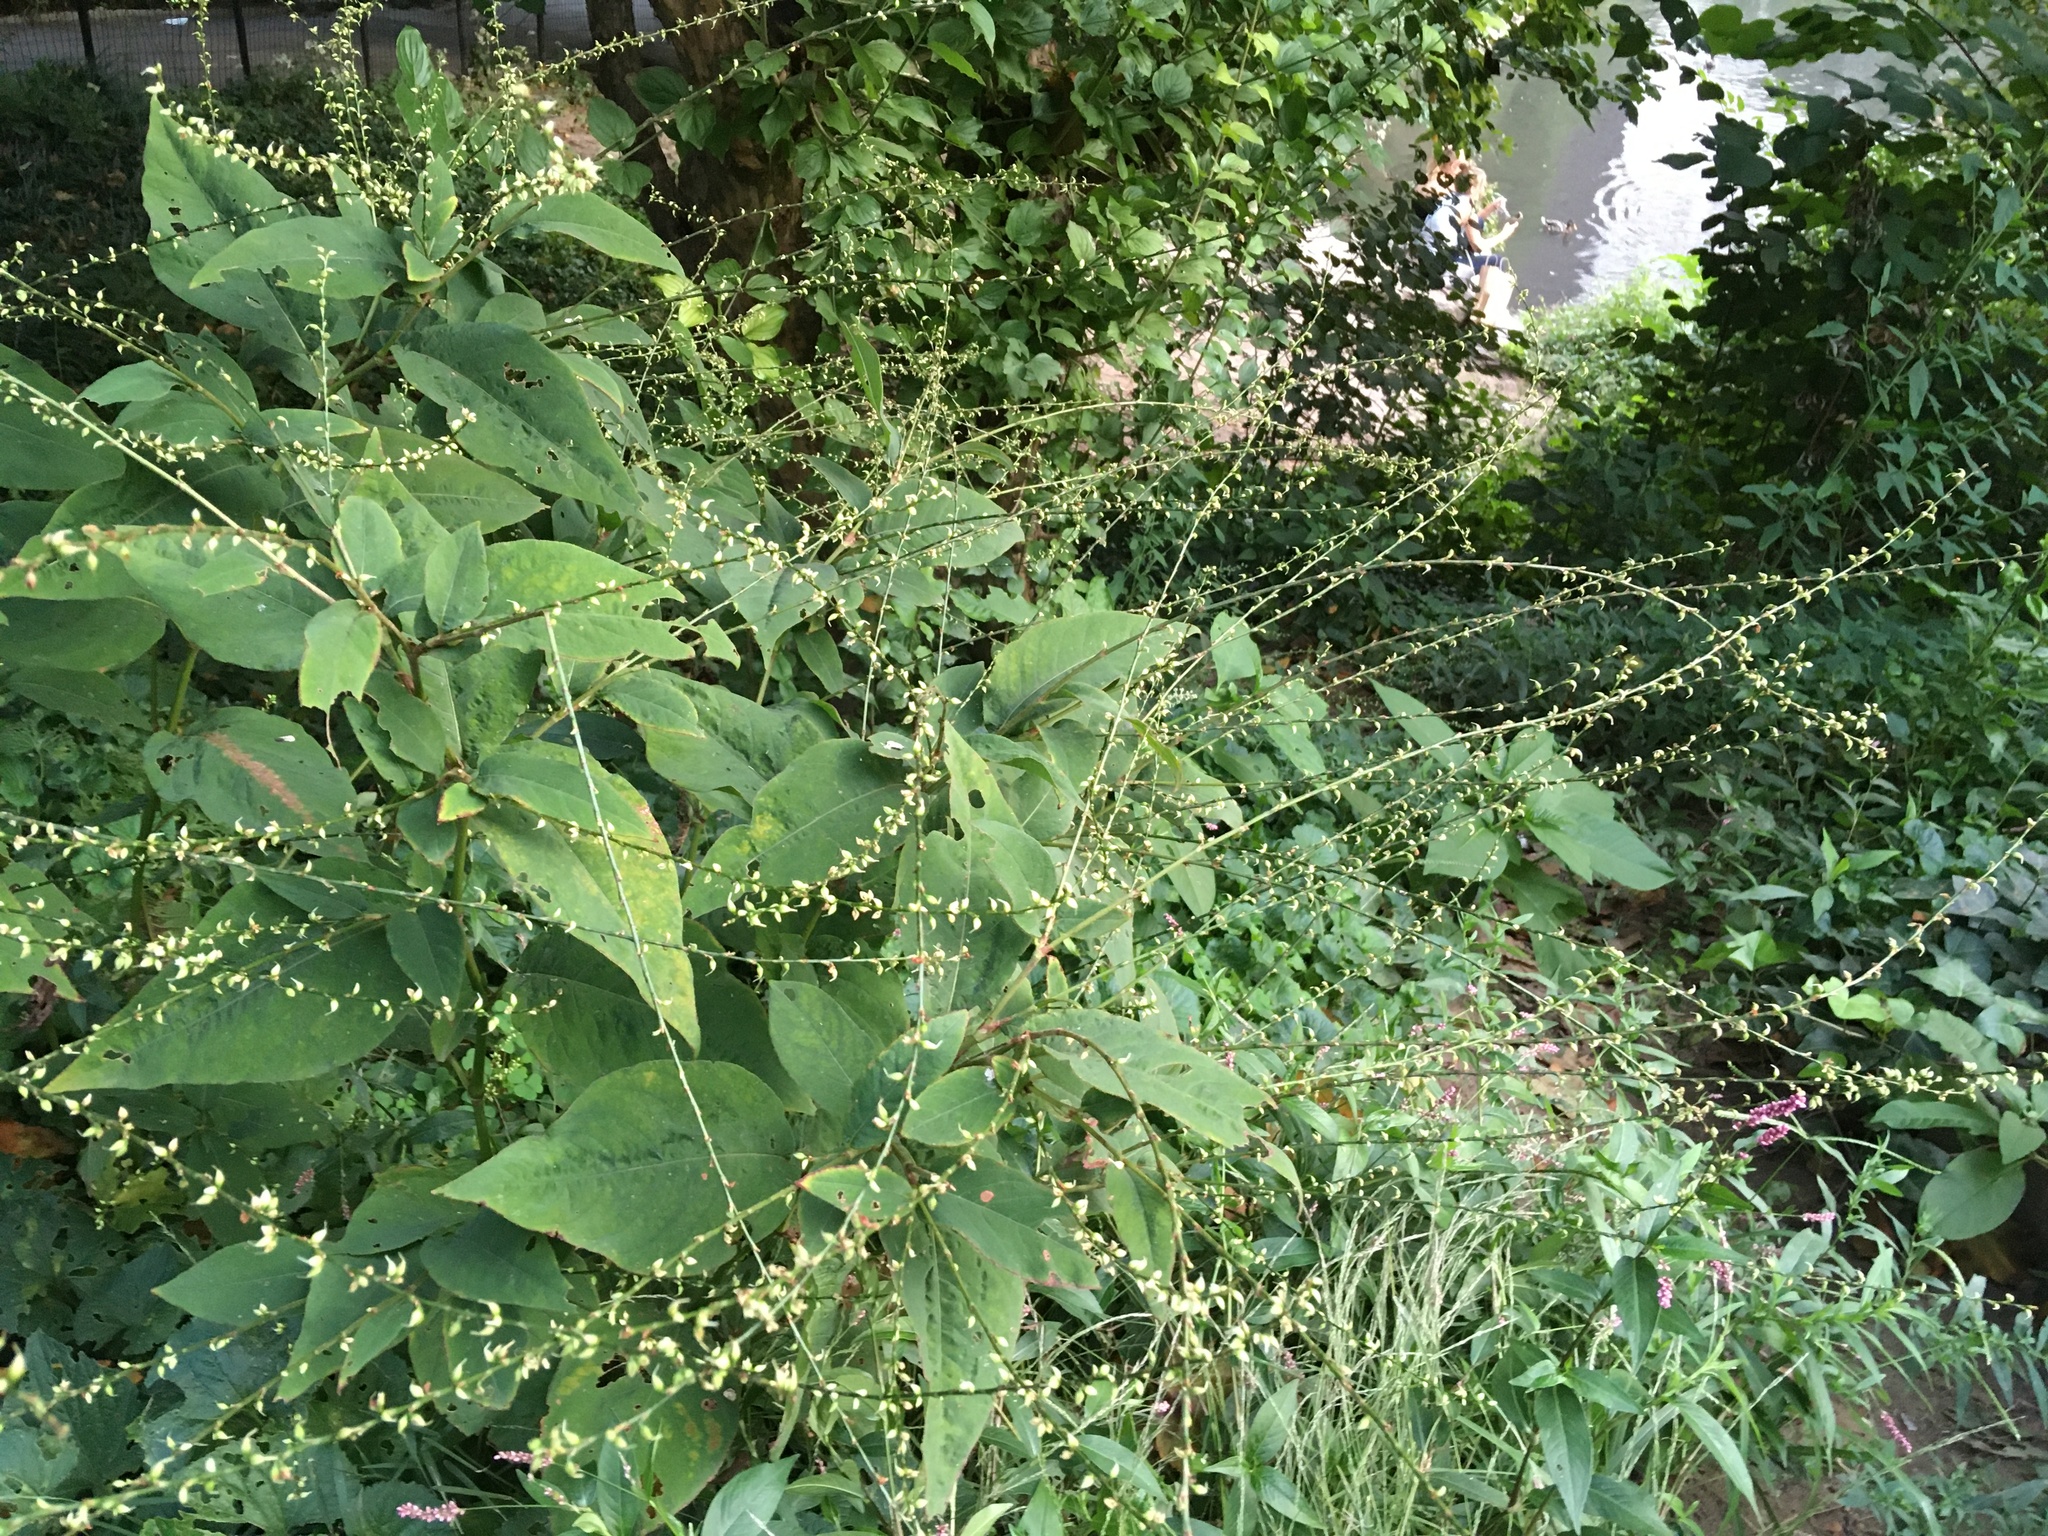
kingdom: Plantae
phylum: Tracheophyta
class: Magnoliopsida
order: Caryophyllales
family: Polygonaceae
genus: Persicaria
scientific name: Persicaria virginiana
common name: Jumpseed
